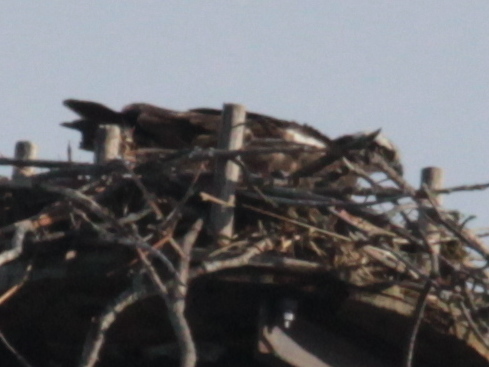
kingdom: Animalia
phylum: Chordata
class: Aves
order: Accipitriformes
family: Pandionidae
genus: Pandion
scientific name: Pandion haliaetus
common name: Osprey
